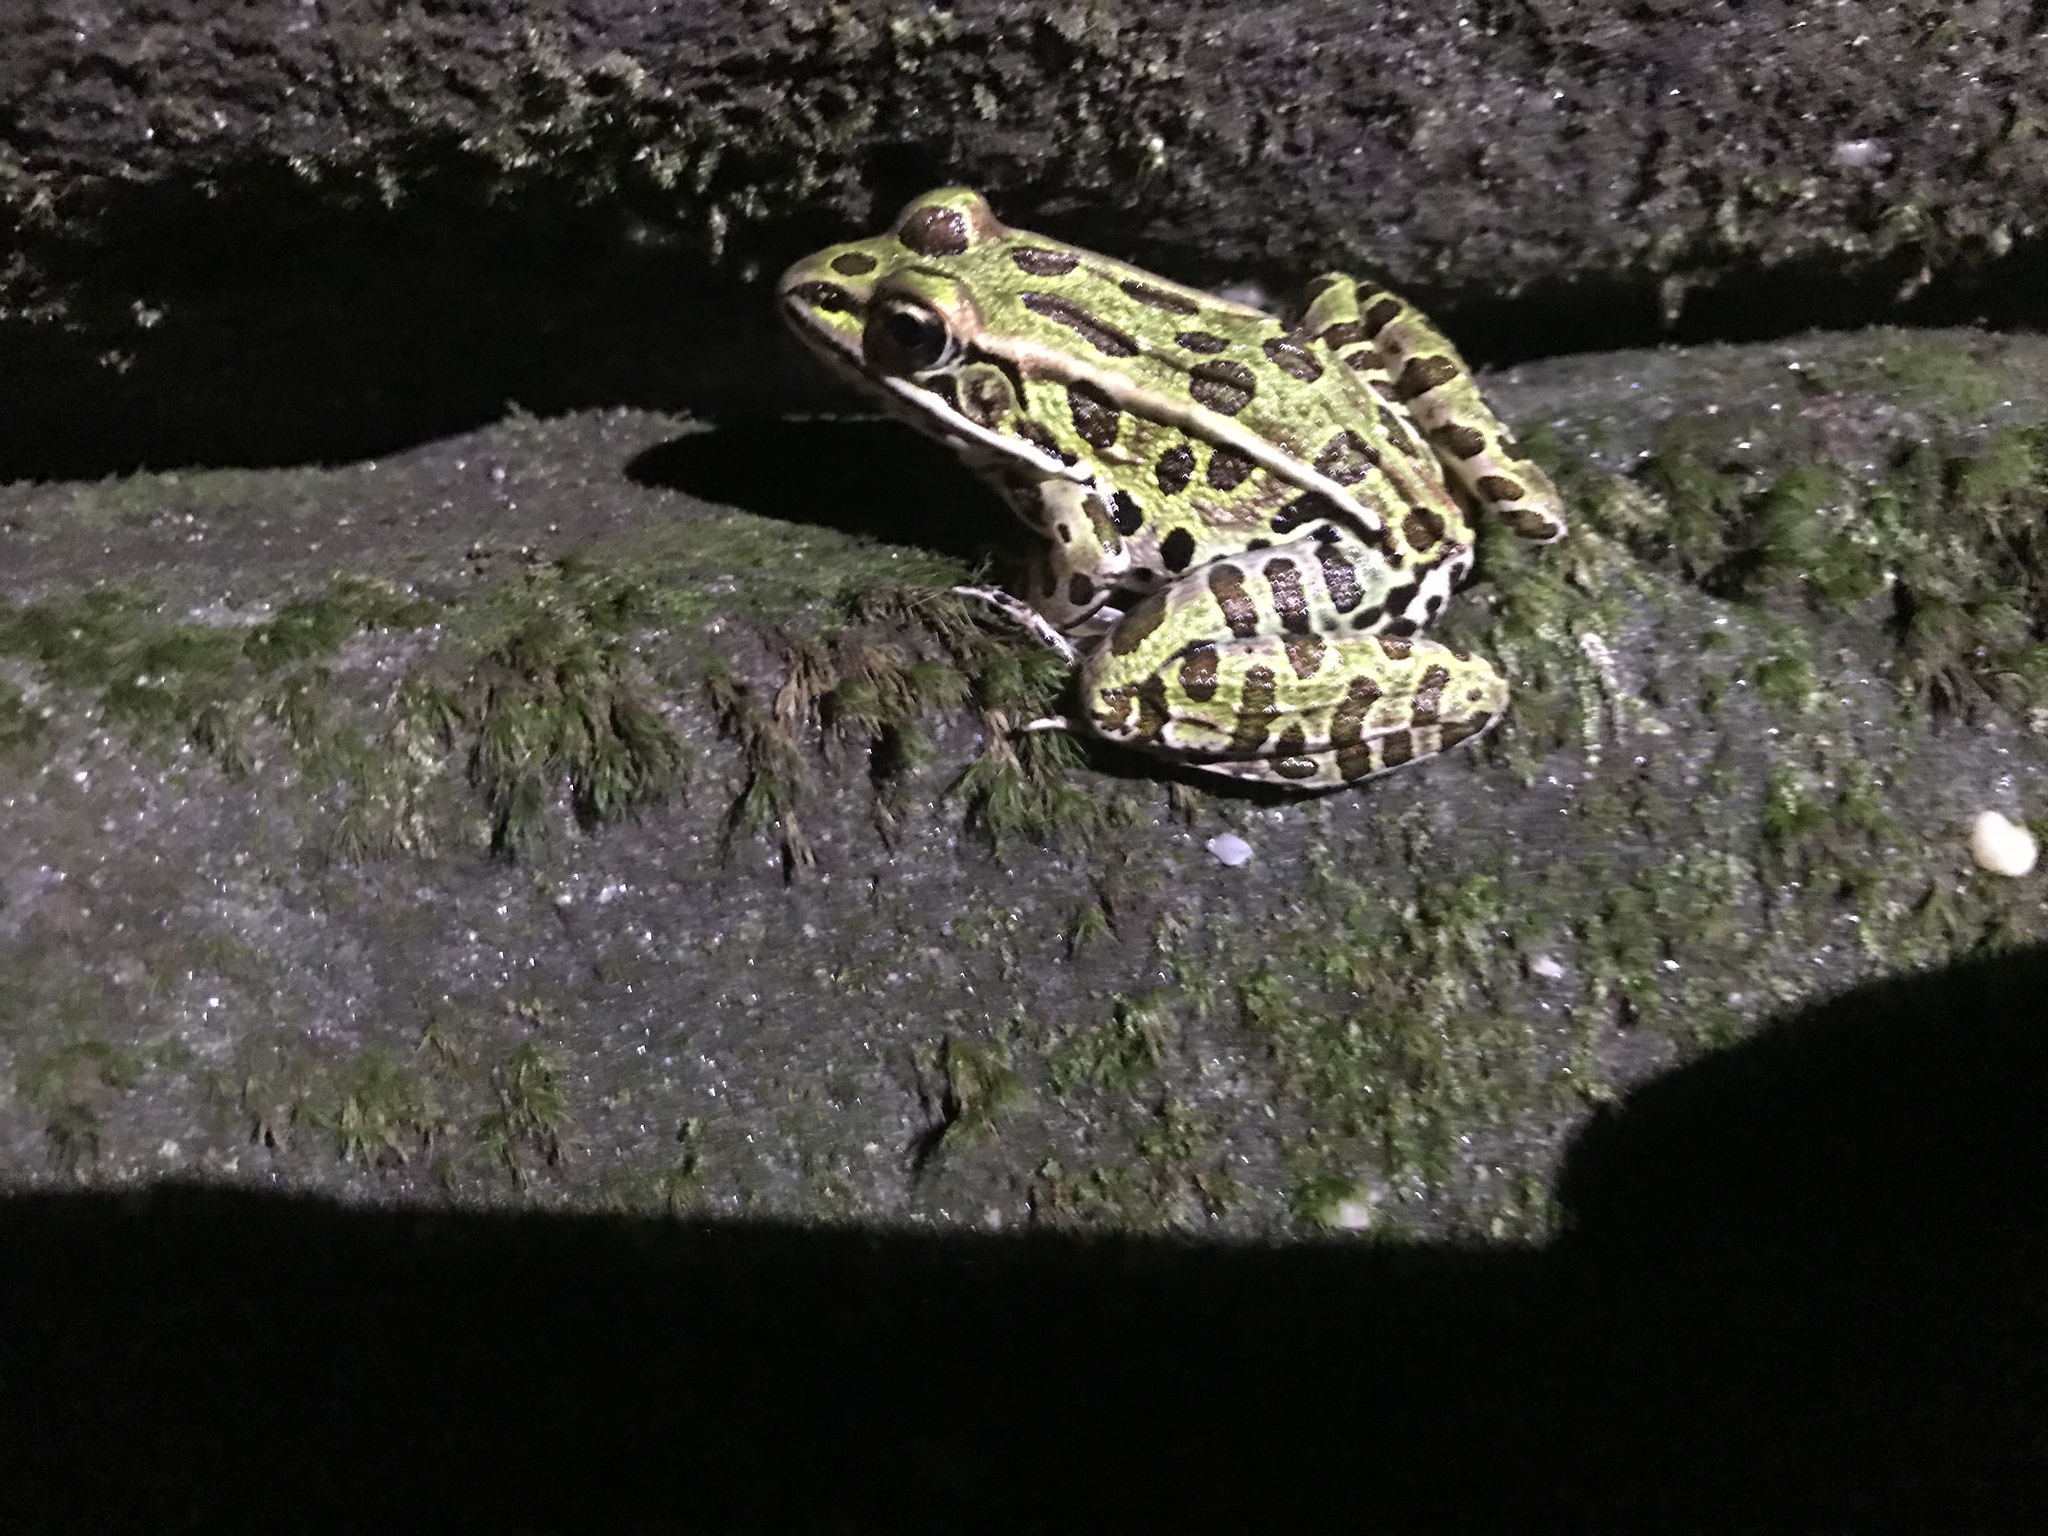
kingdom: Animalia
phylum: Chordata
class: Amphibia
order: Anura
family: Ranidae
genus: Lithobates
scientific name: Lithobates pipiens
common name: Northern leopard frog
